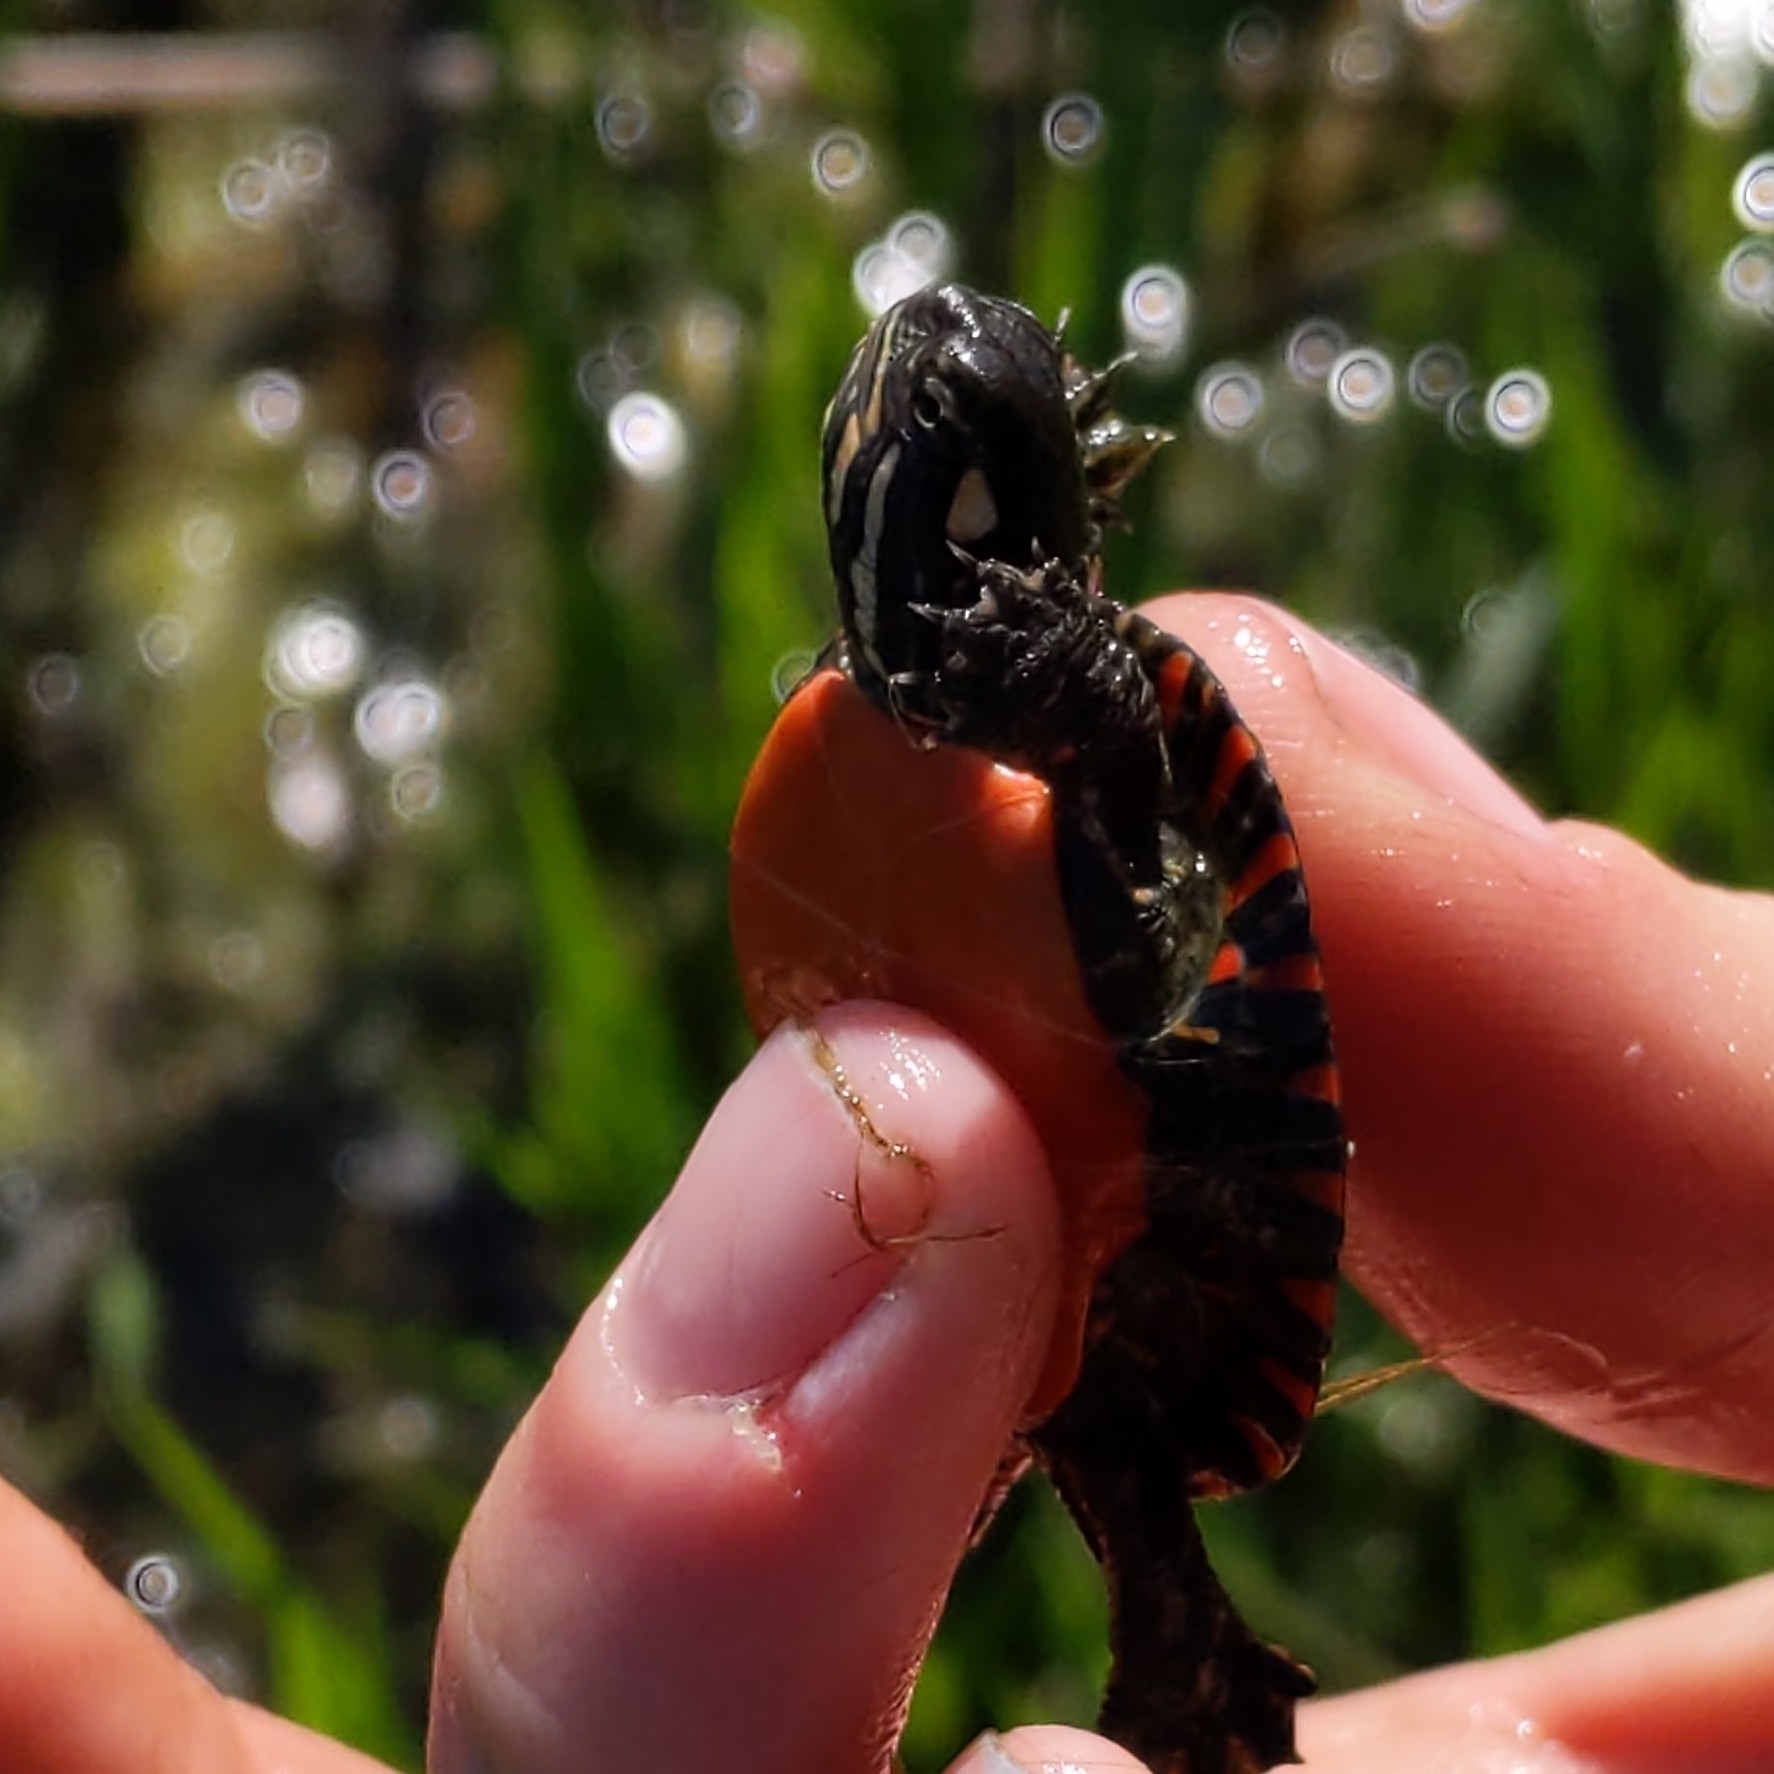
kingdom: Animalia
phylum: Chordata
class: Testudines
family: Emydidae
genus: Chrysemys
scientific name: Chrysemys picta
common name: Painted turtle
